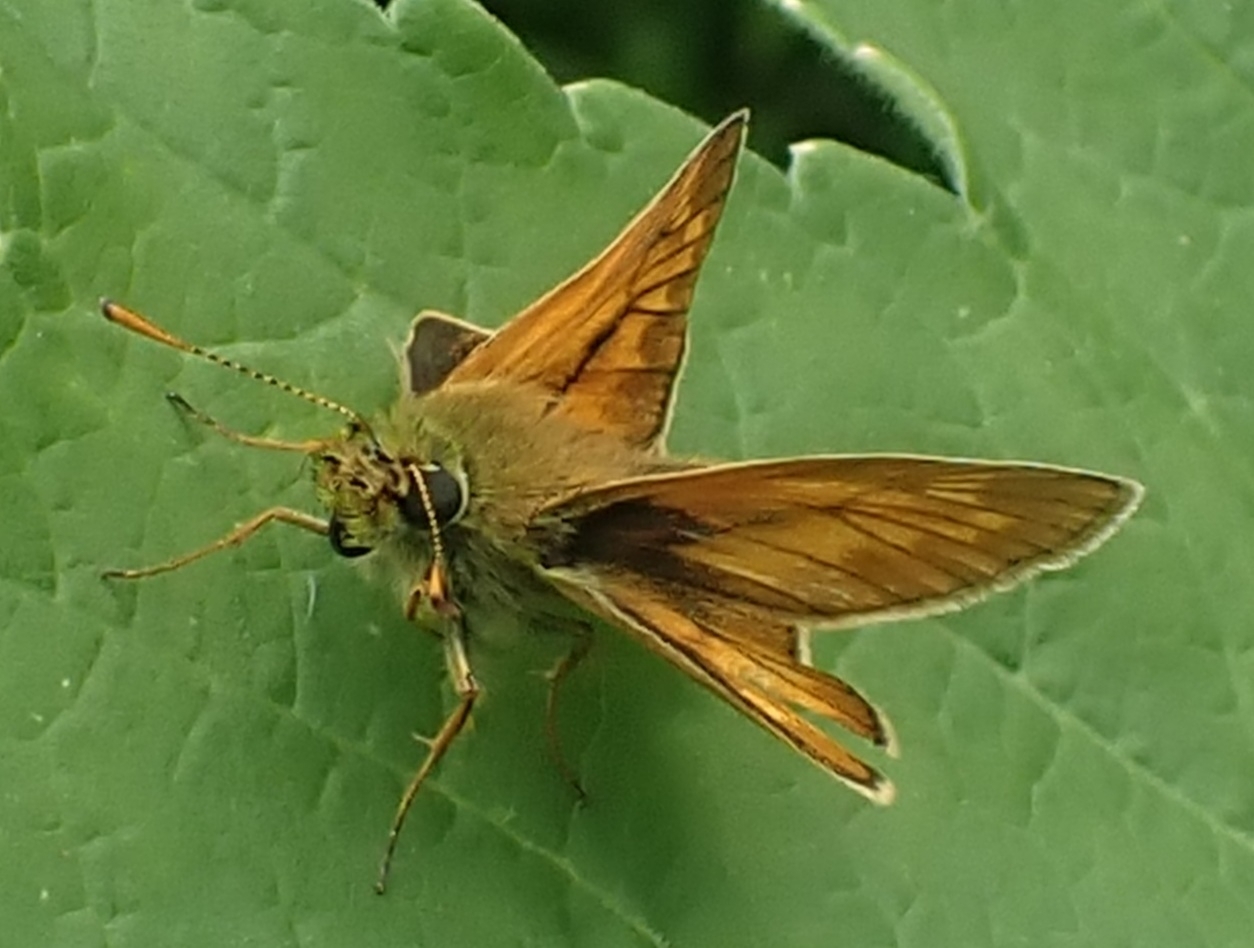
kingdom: Animalia
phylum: Arthropoda
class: Insecta
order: Lepidoptera
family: Hesperiidae
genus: Ochlodes
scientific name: Ochlodes venata
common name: Large skipper
